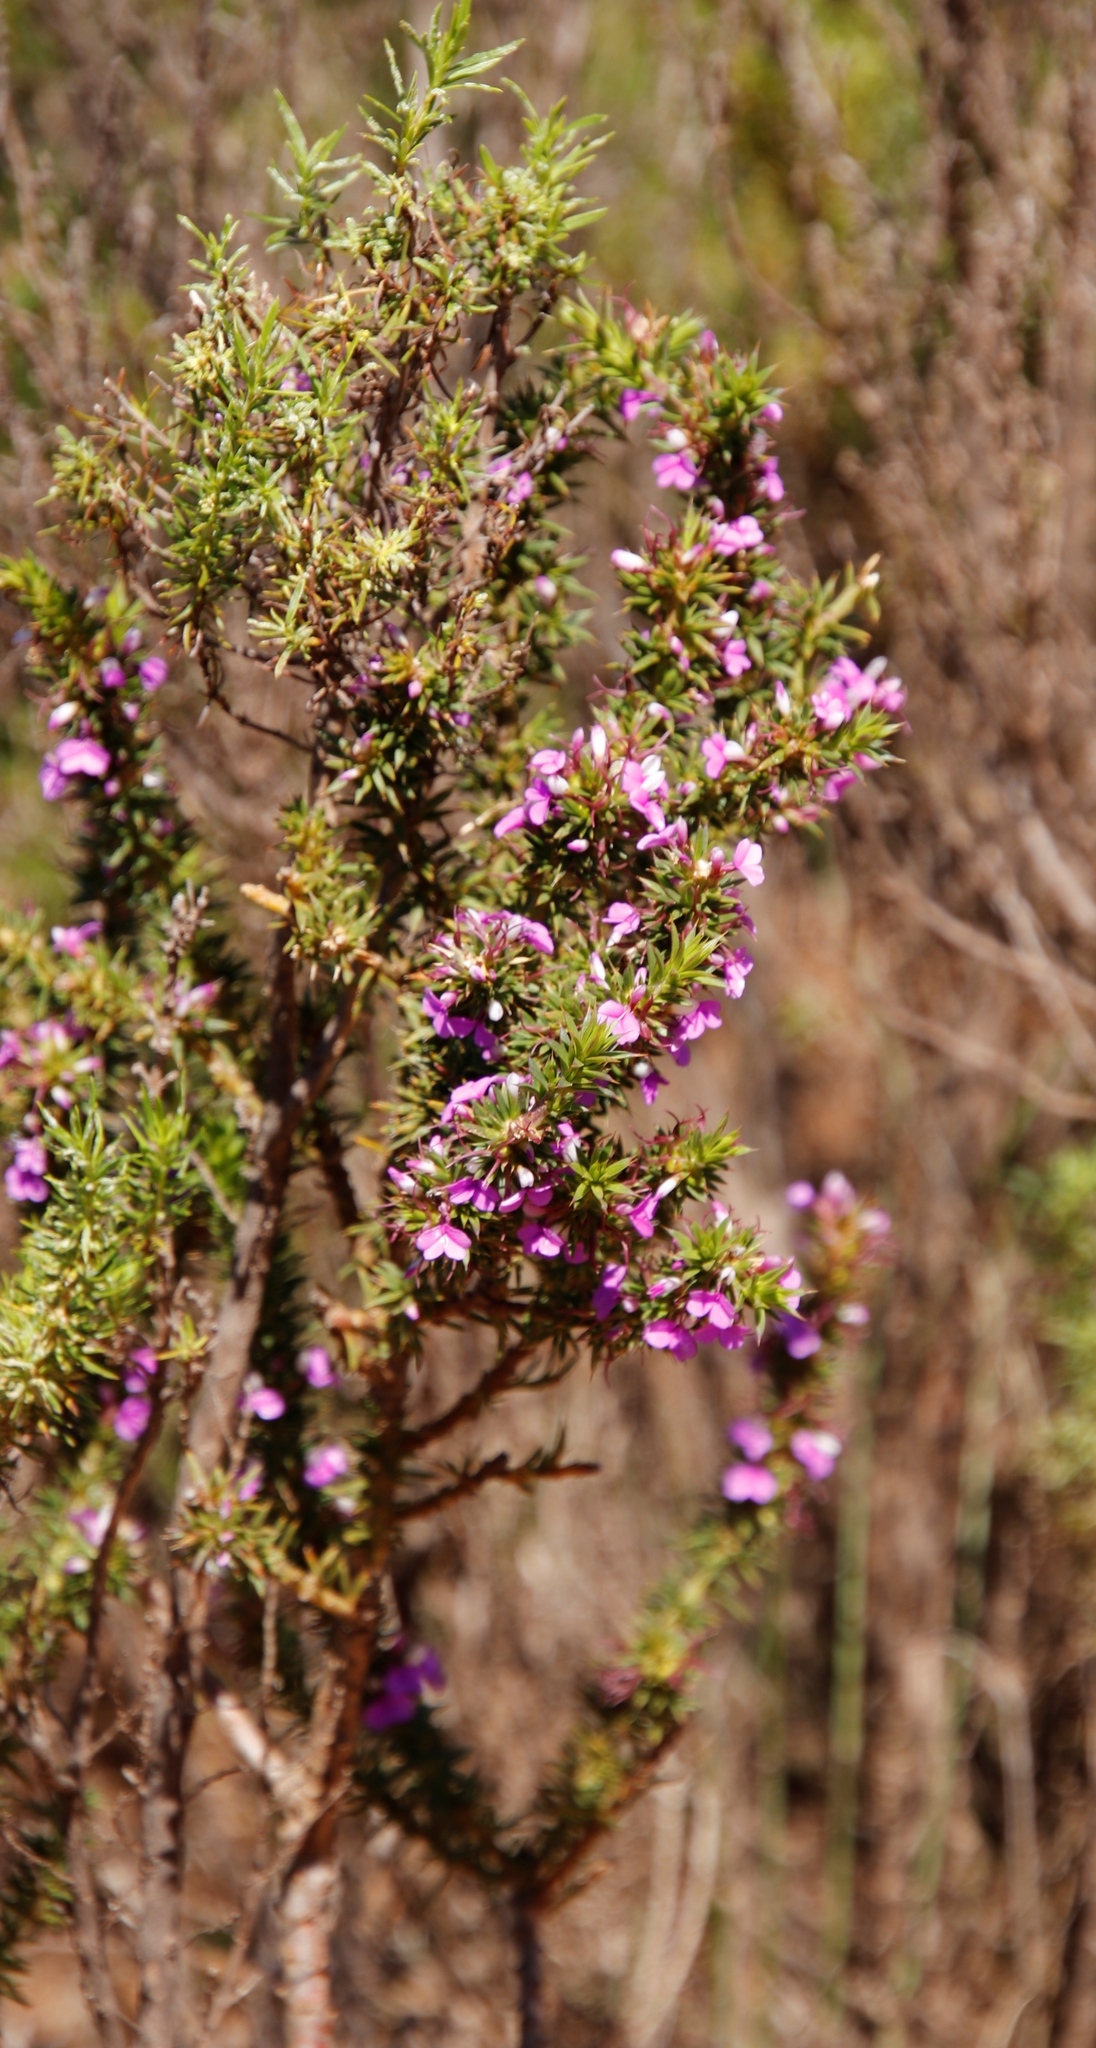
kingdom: Plantae
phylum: Tracheophyta
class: Magnoliopsida
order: Fabales
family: Polygalaceae
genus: Muraltia
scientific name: Muraltia heisteria
